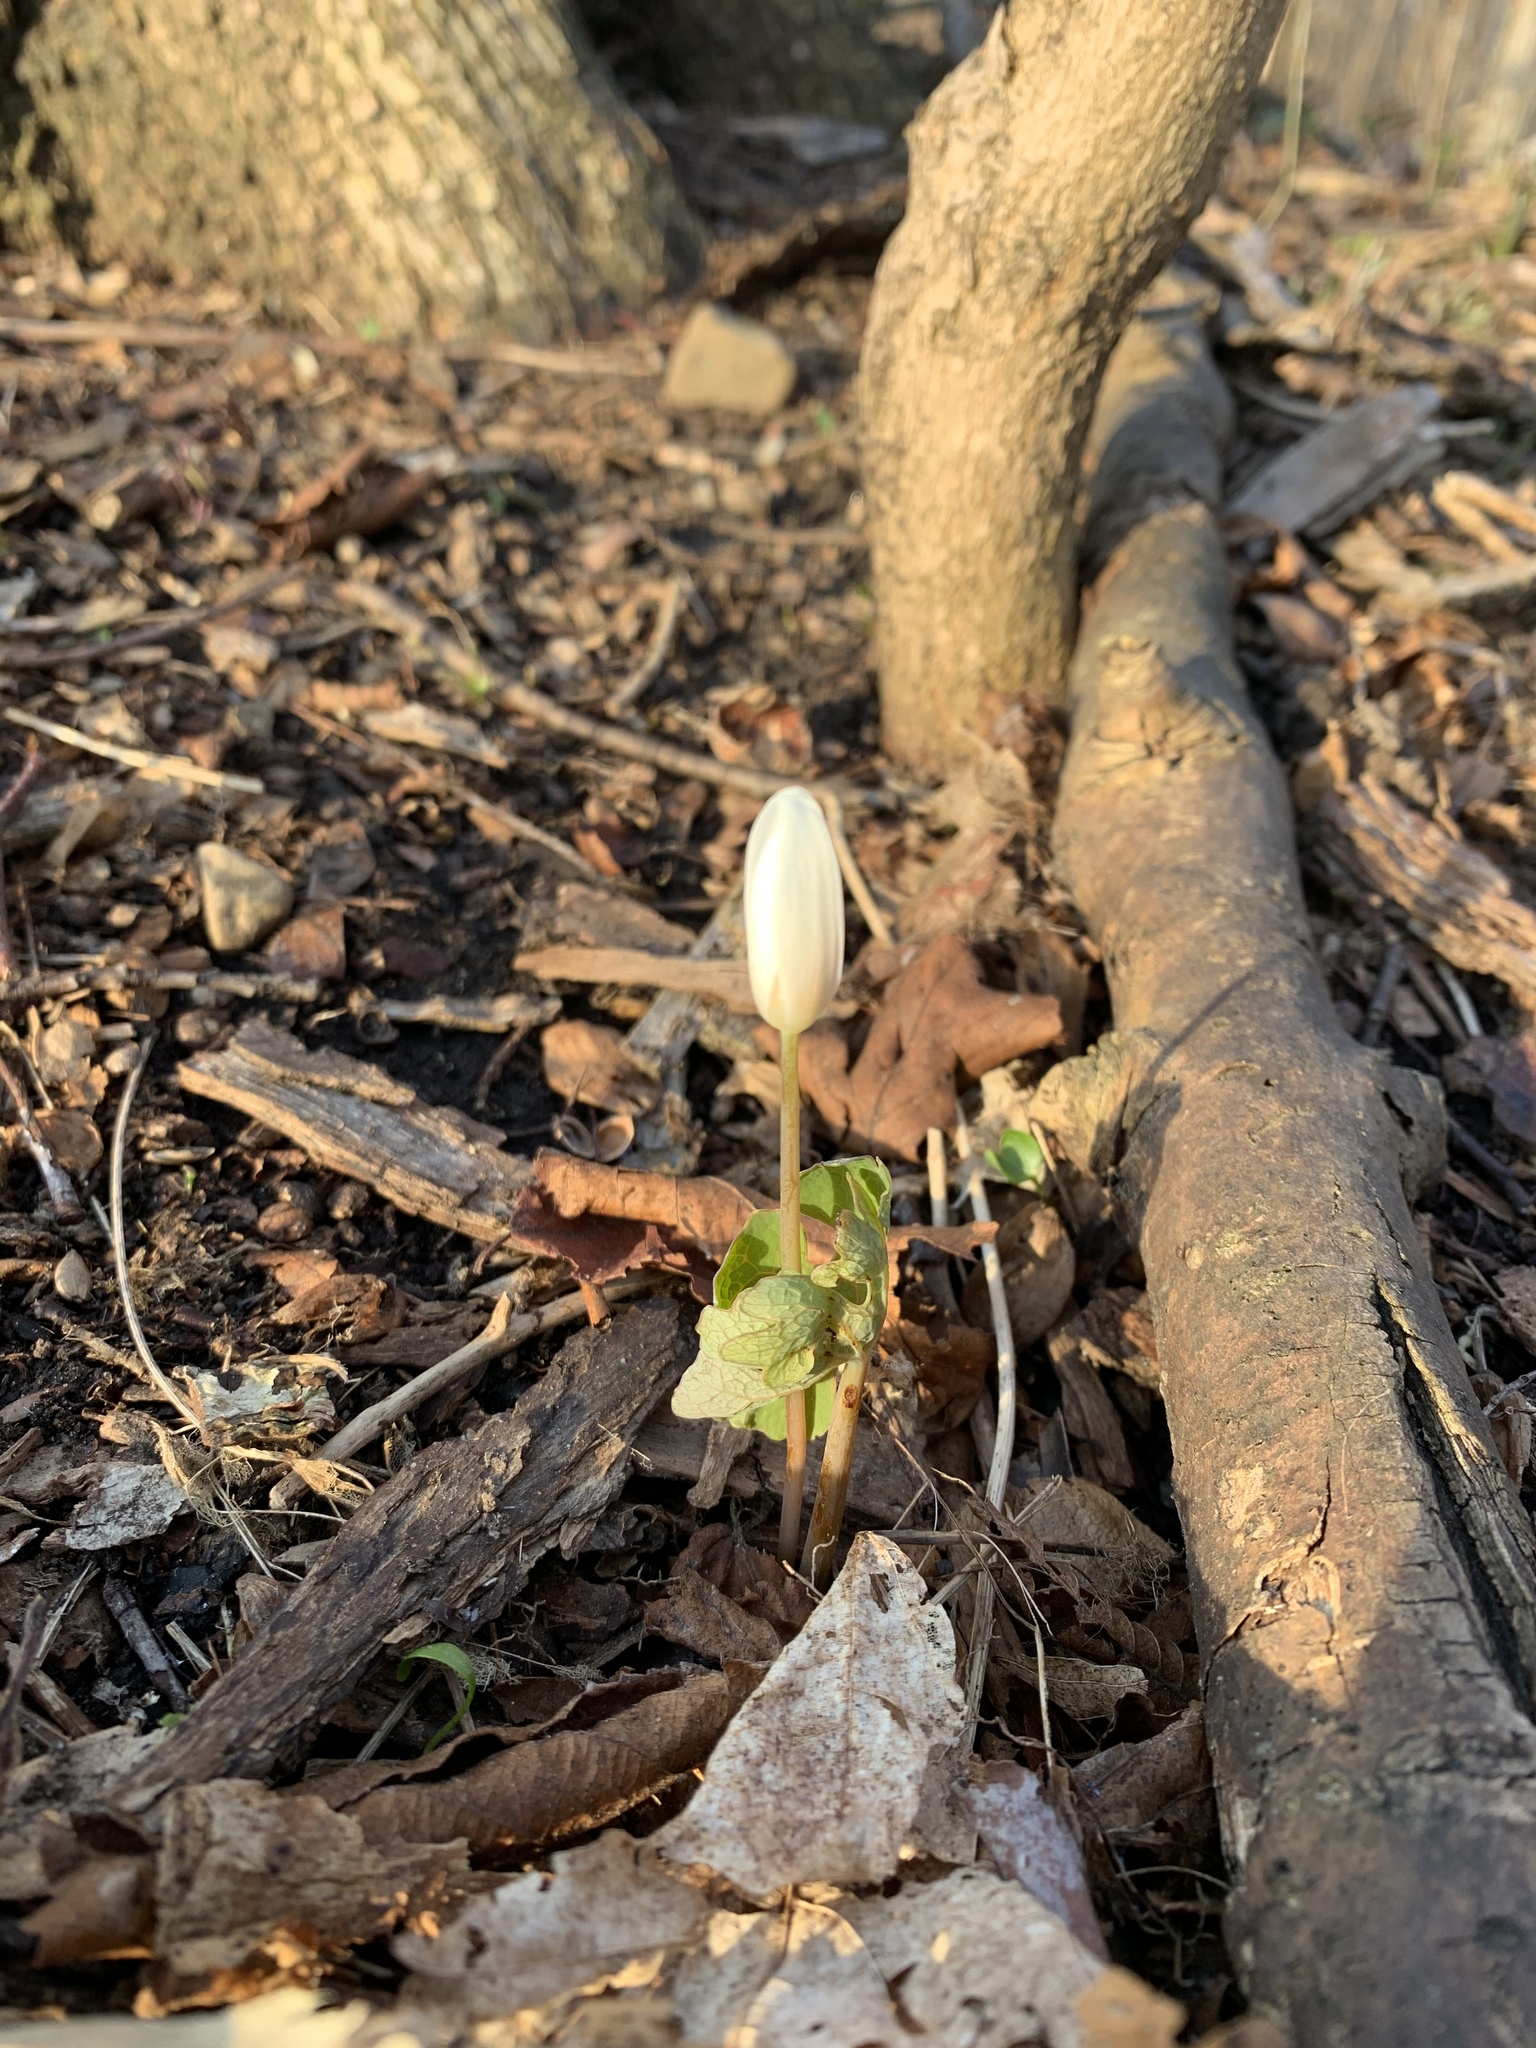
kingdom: Plantae
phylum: Tracheophyta
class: Magnoliopsida
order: Ranunculales
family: Papaveraceae
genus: Sanguinaria
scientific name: Sanguinaria canadensis
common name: Bloodroot
